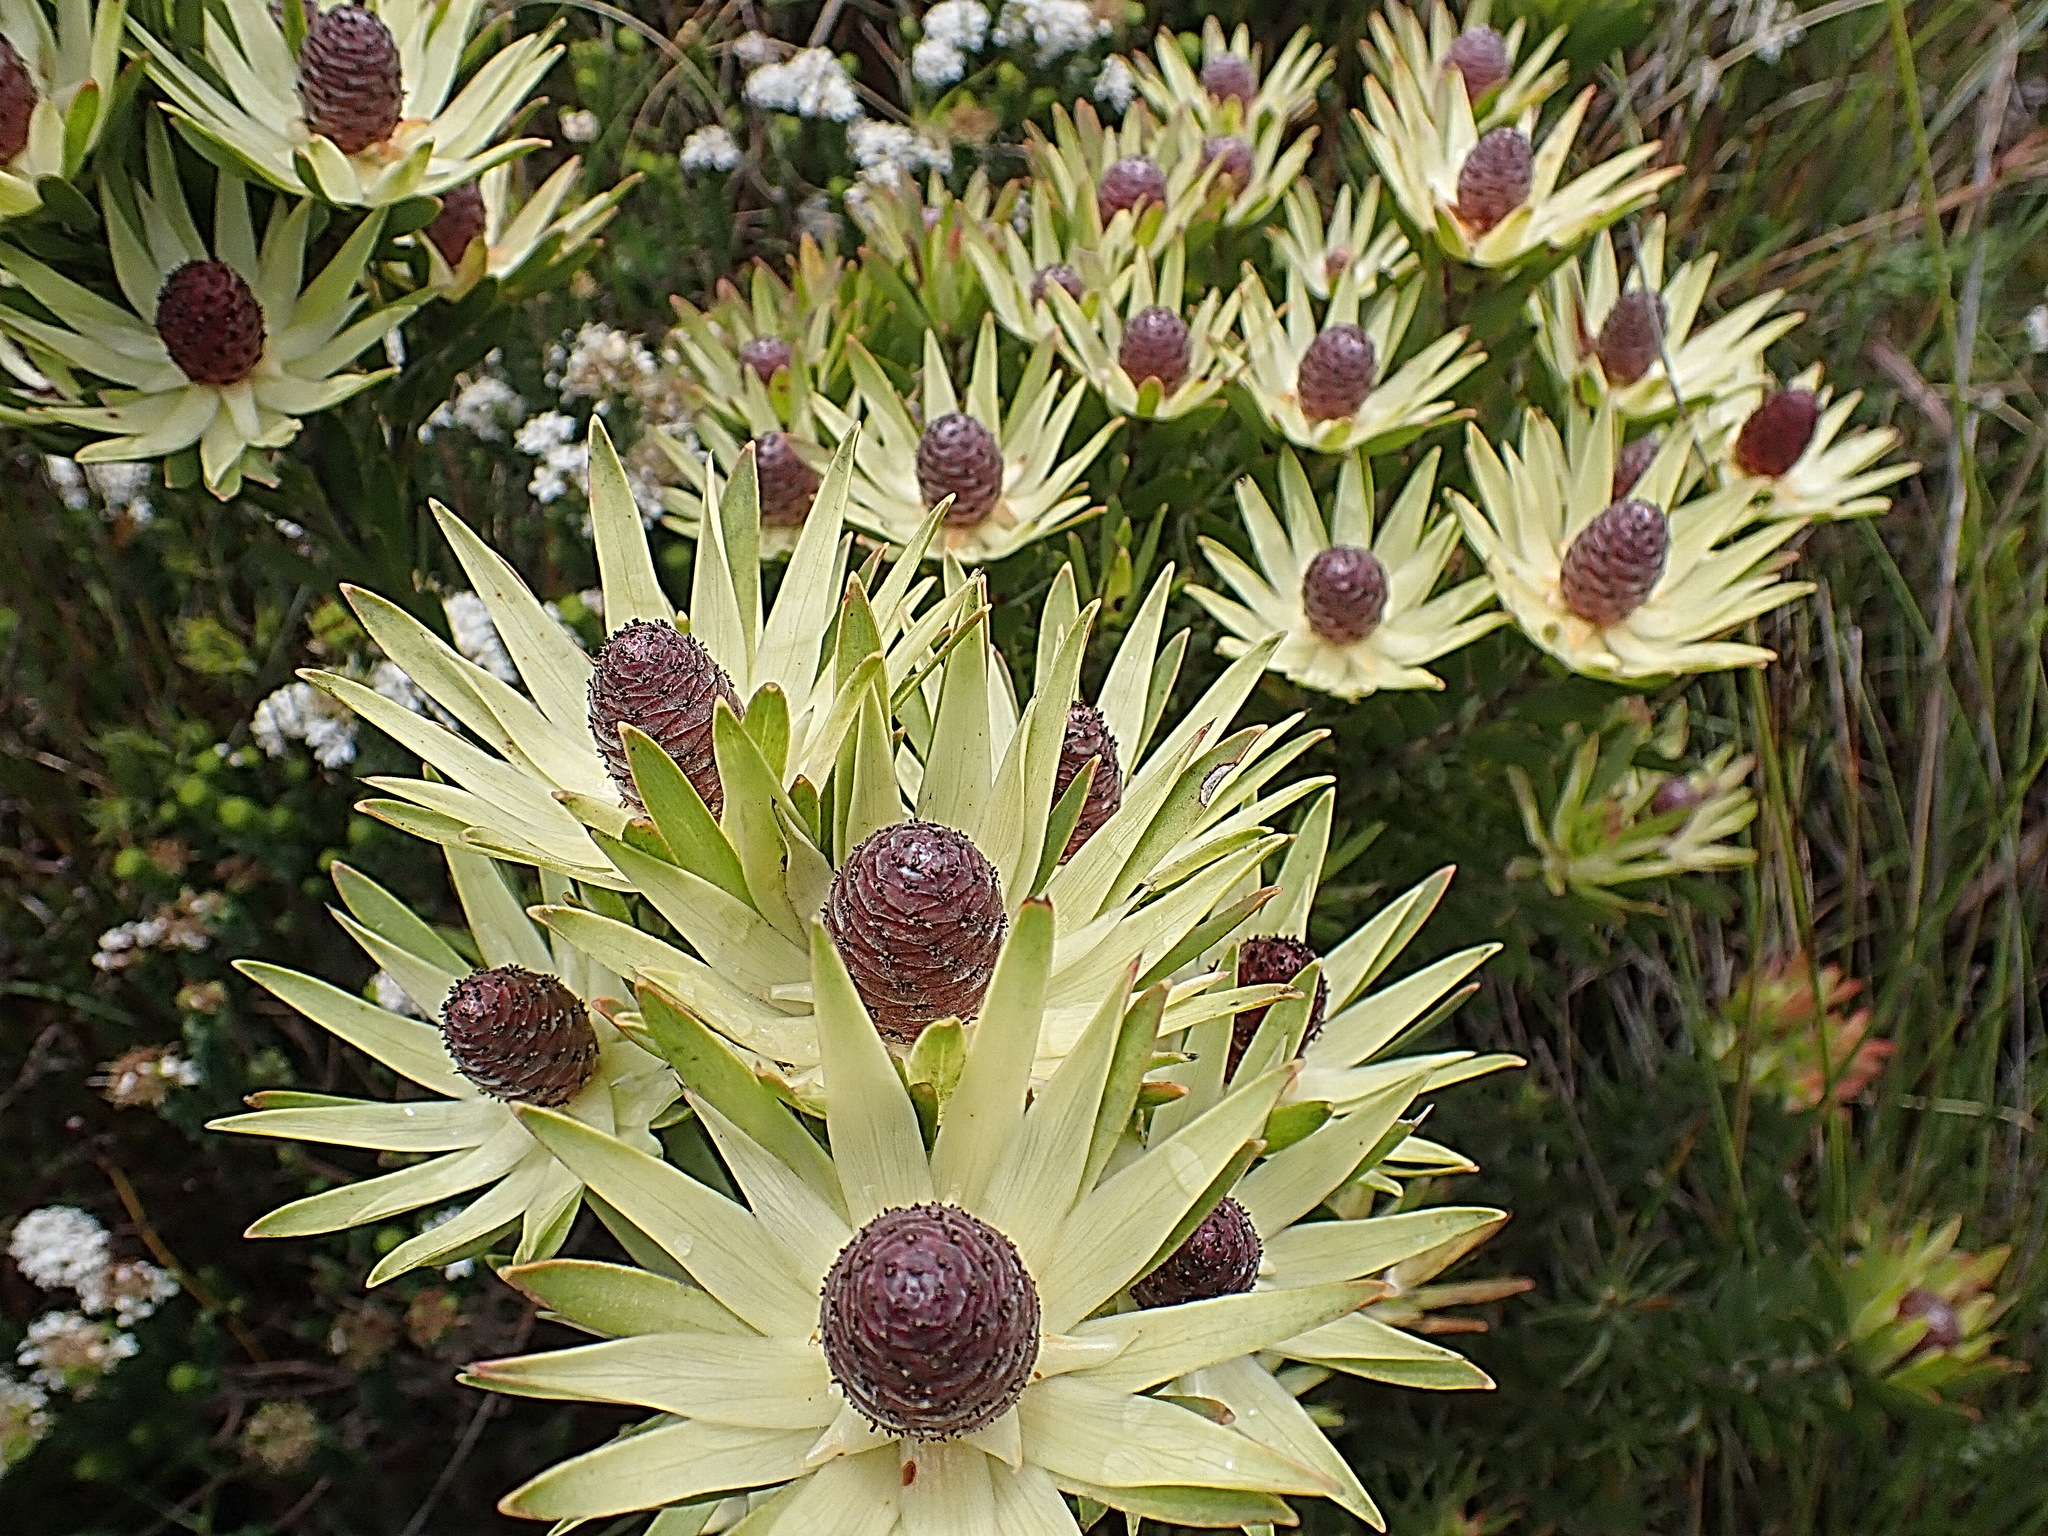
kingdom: Plantae
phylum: Tracheophyta
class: Magnoliopsida
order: Proteales
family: Proteaceae
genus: Leucadendron
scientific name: Leucadendron loeriense
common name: Loerie conebush
